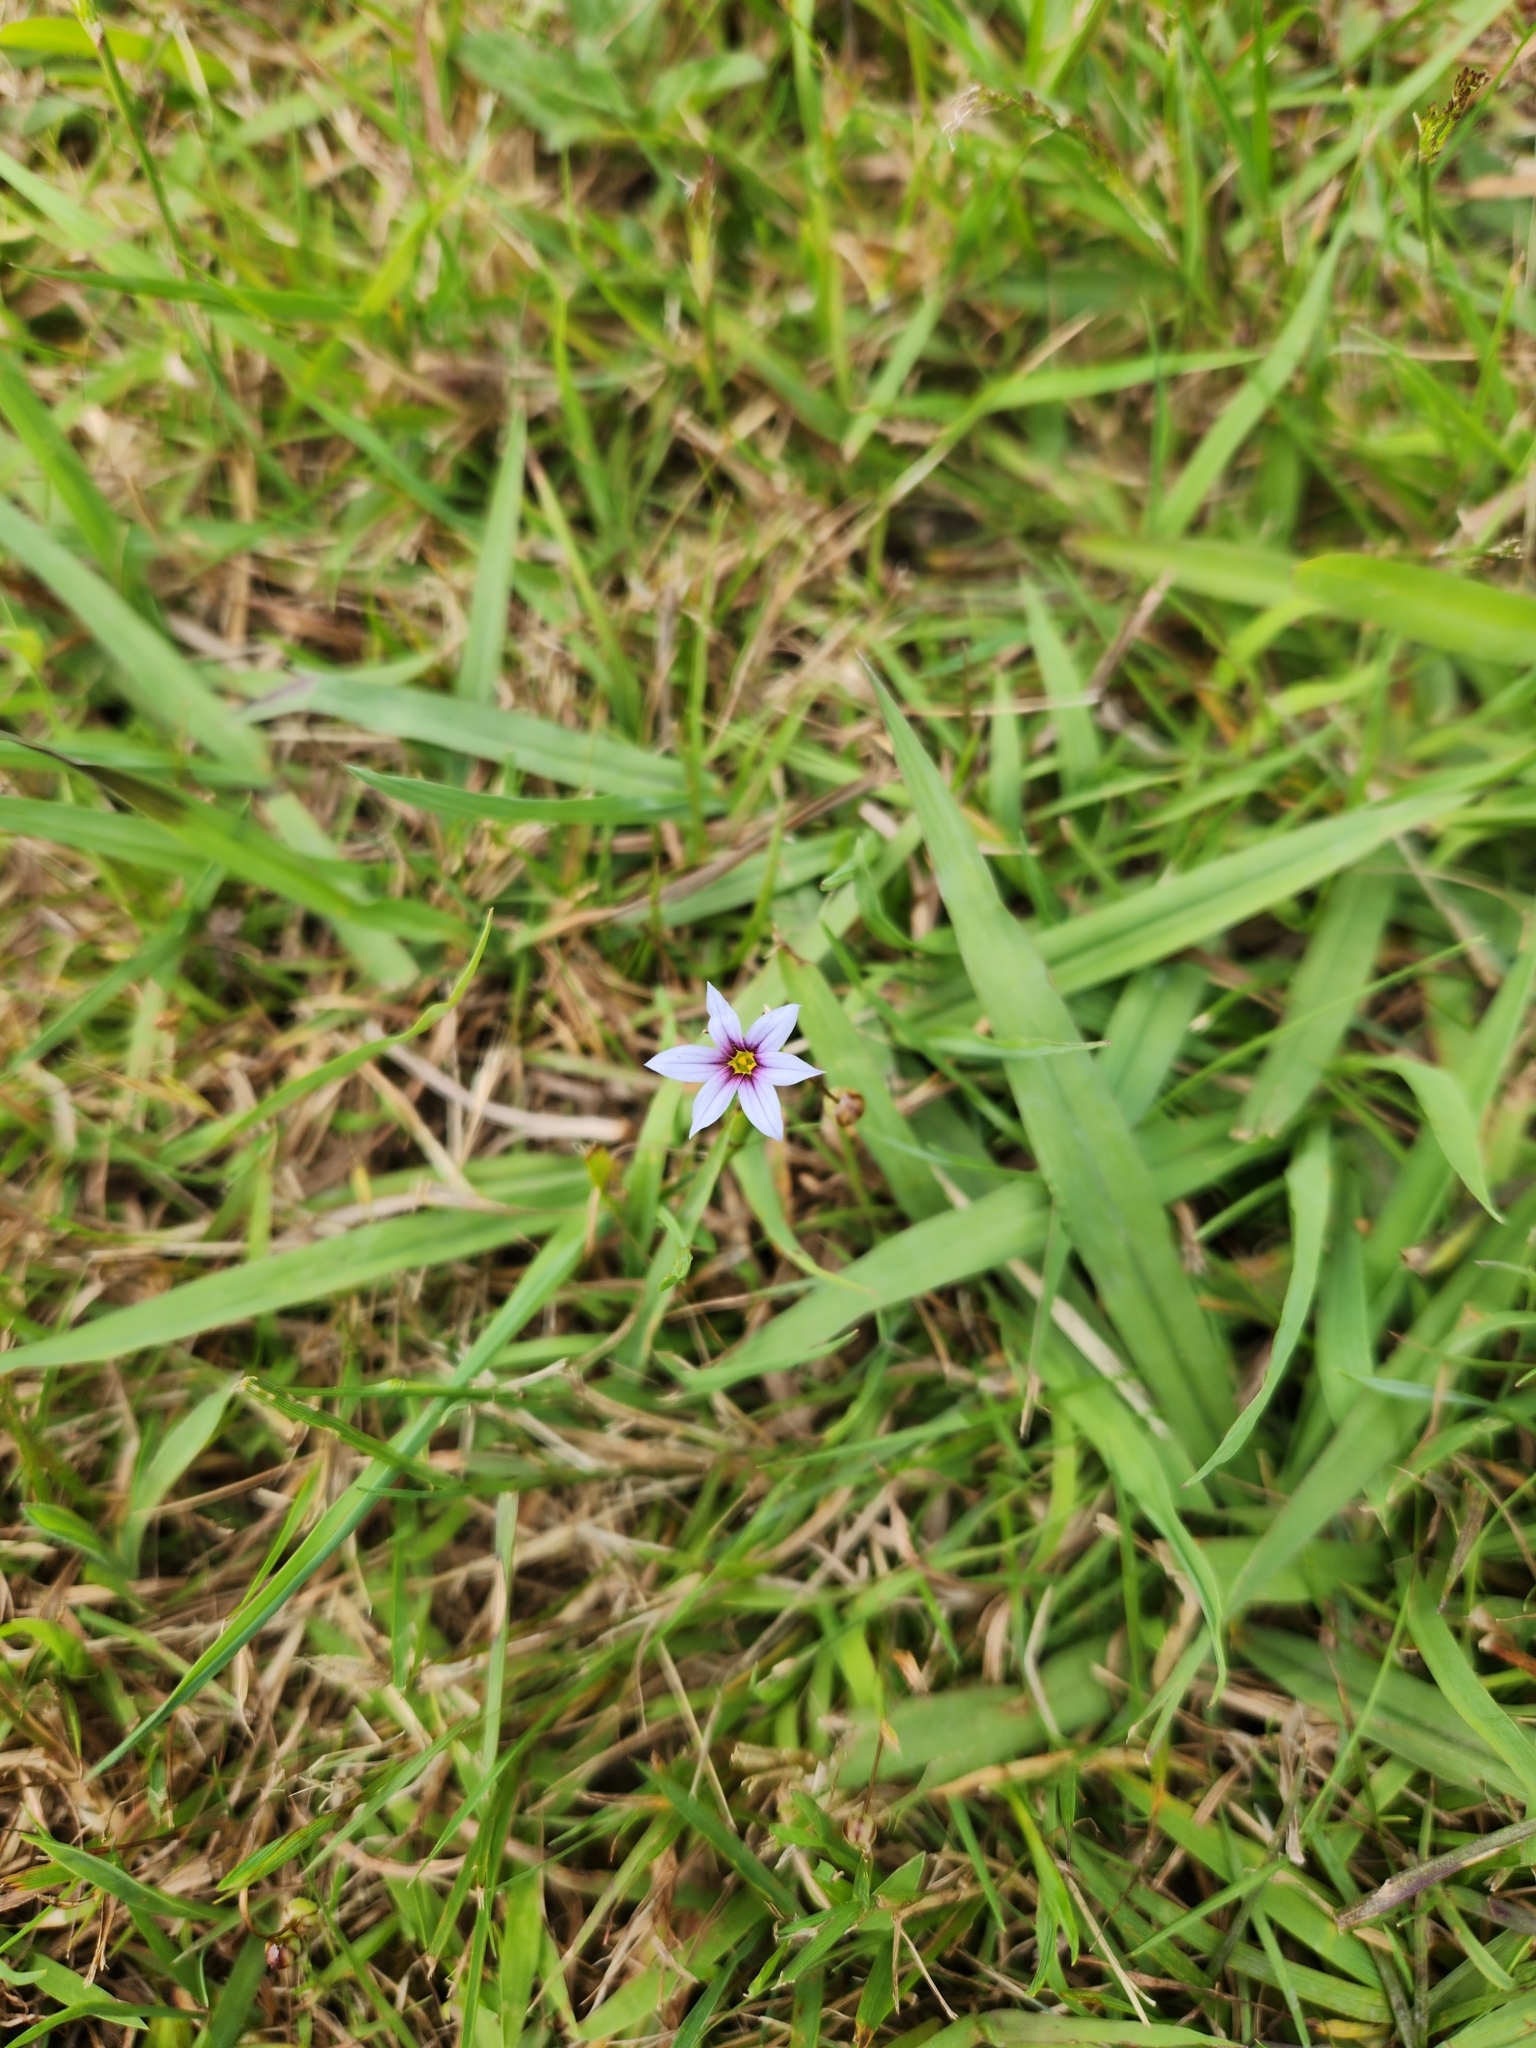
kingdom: Plantae
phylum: Tracheophyta
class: Liliopsida
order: Asparagales
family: Iridaceae
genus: Sisyrinchium
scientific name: Sisyrinchium micranthum
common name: Bermuda pigroot
